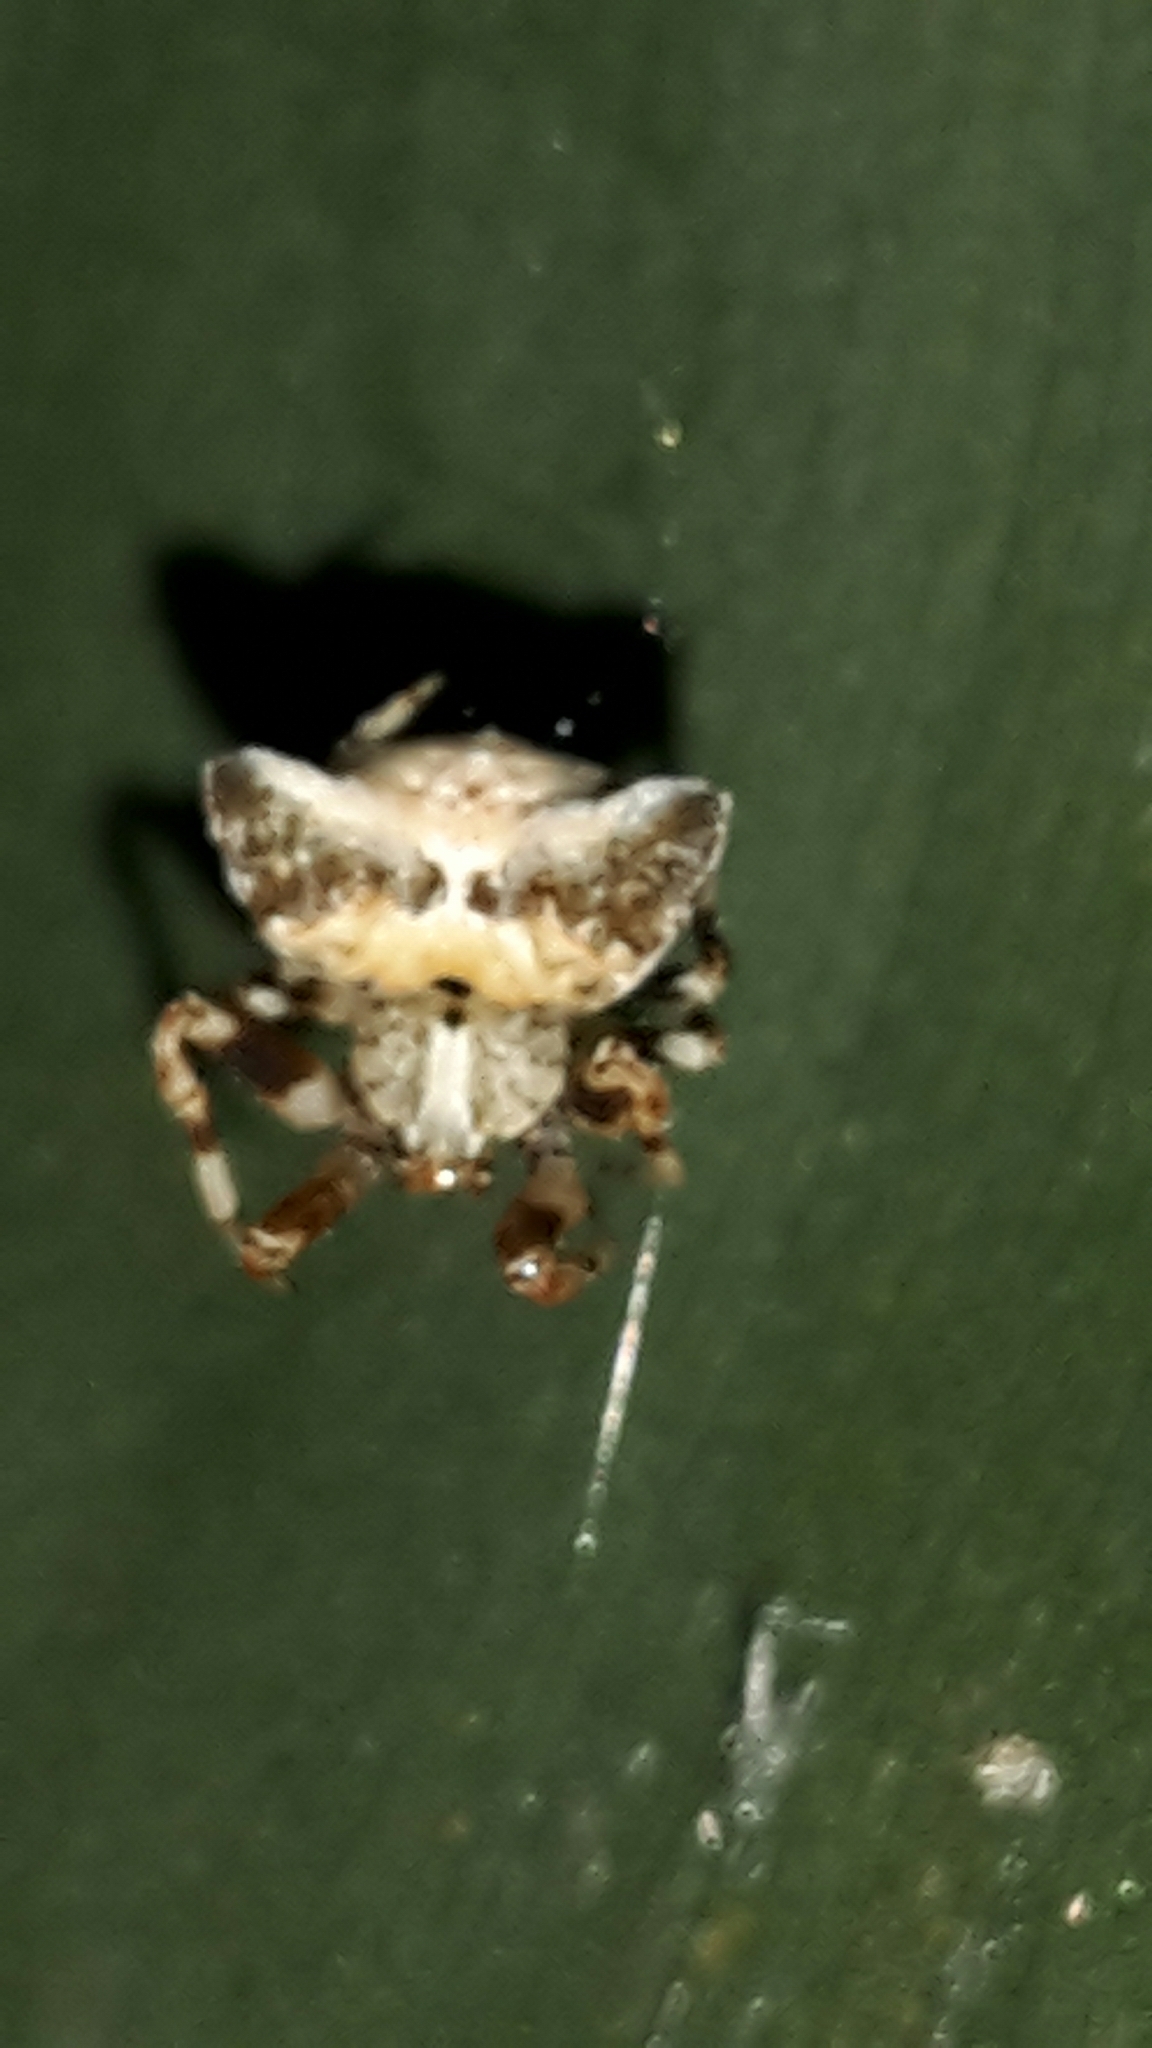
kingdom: Animalia
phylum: Arthropoda
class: Arachnida
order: Araneae
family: Araneidae
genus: Celaenia
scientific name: Celaenia olivacea
